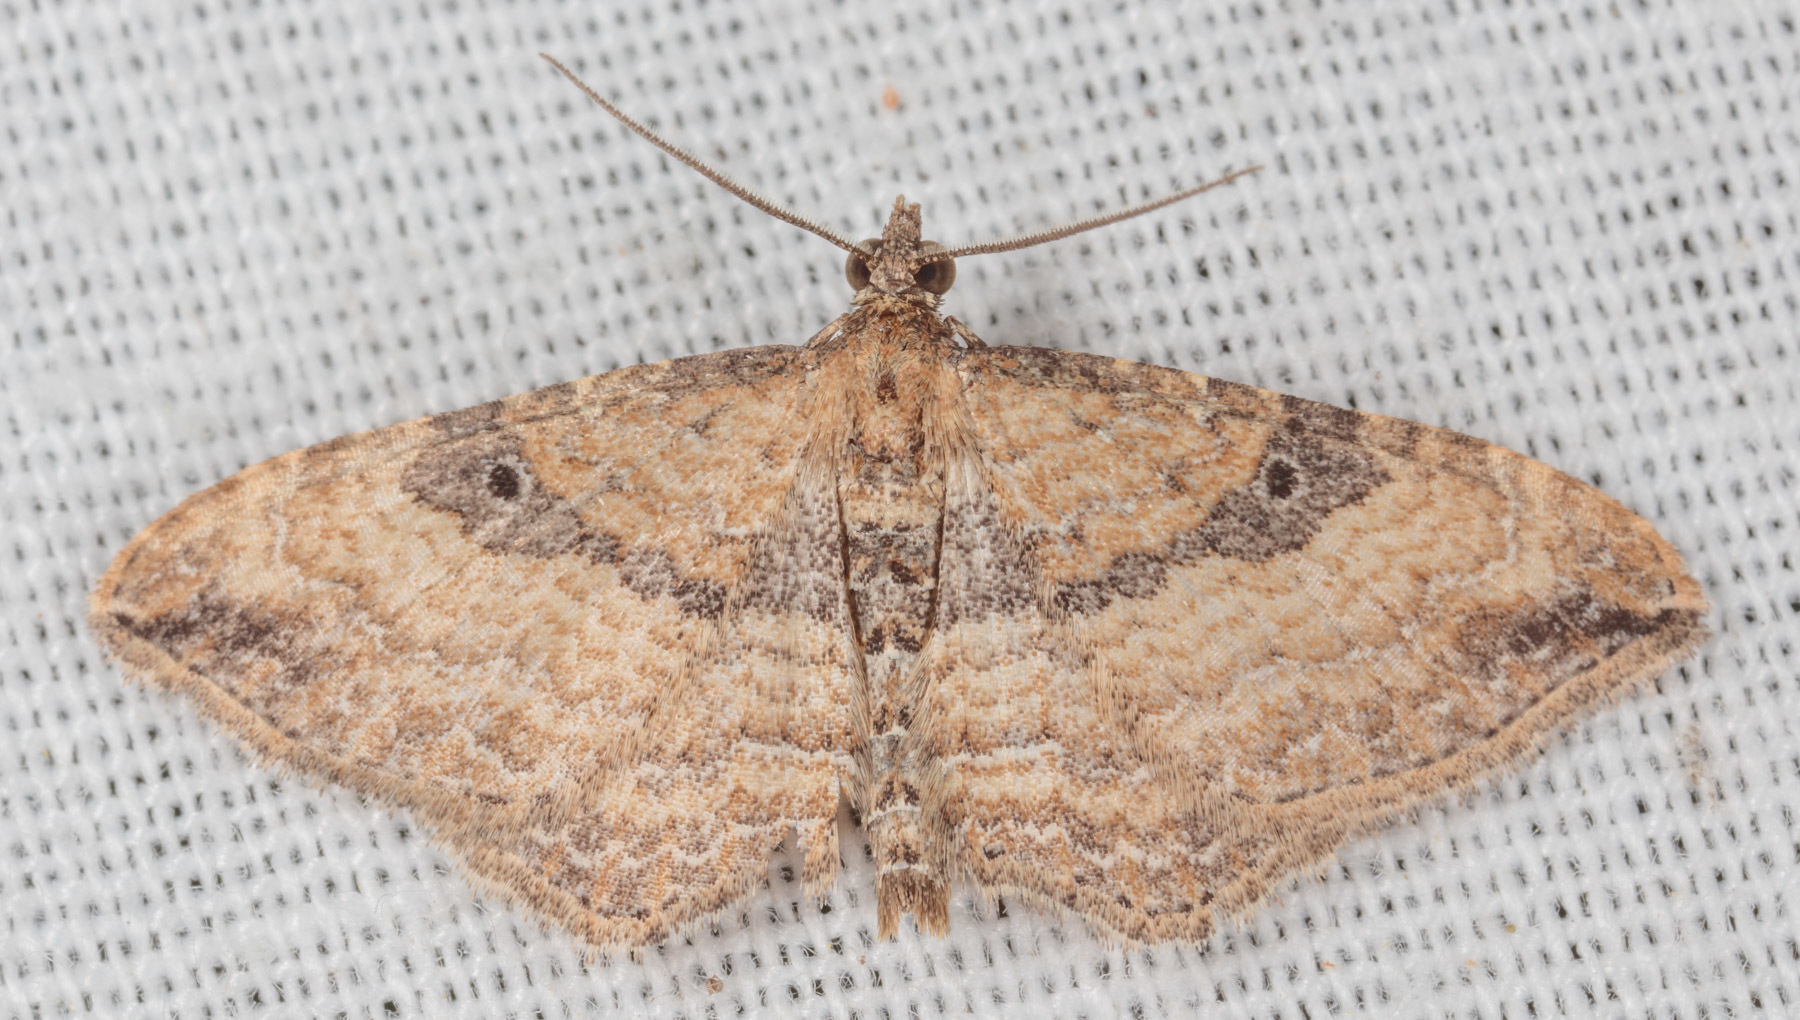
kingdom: Animalia
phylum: Arthropoda
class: Insecta
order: Lepidoptera
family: Geometridae
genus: Orthonama
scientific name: Orthonama obstipata
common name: The gem
